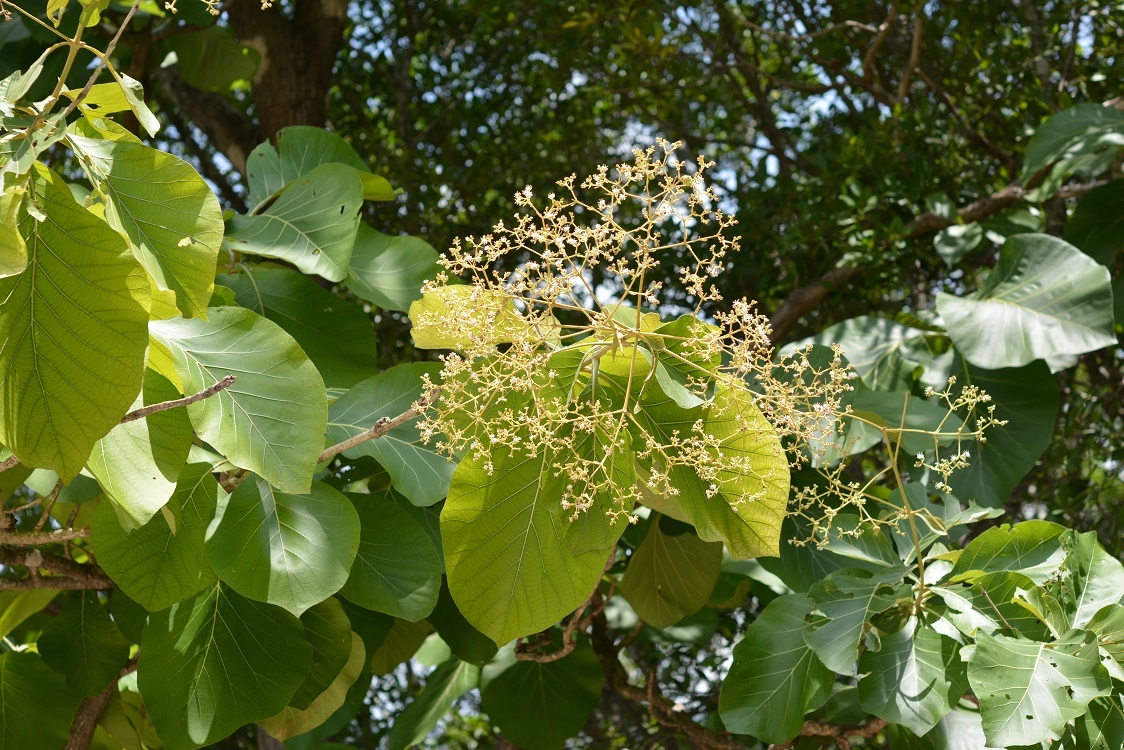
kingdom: Plantae
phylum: Tracheophyta
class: Magnoliopsida
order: Lamiales
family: Lamiaceae
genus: Tectona
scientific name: Tectona grandis
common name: Teak
